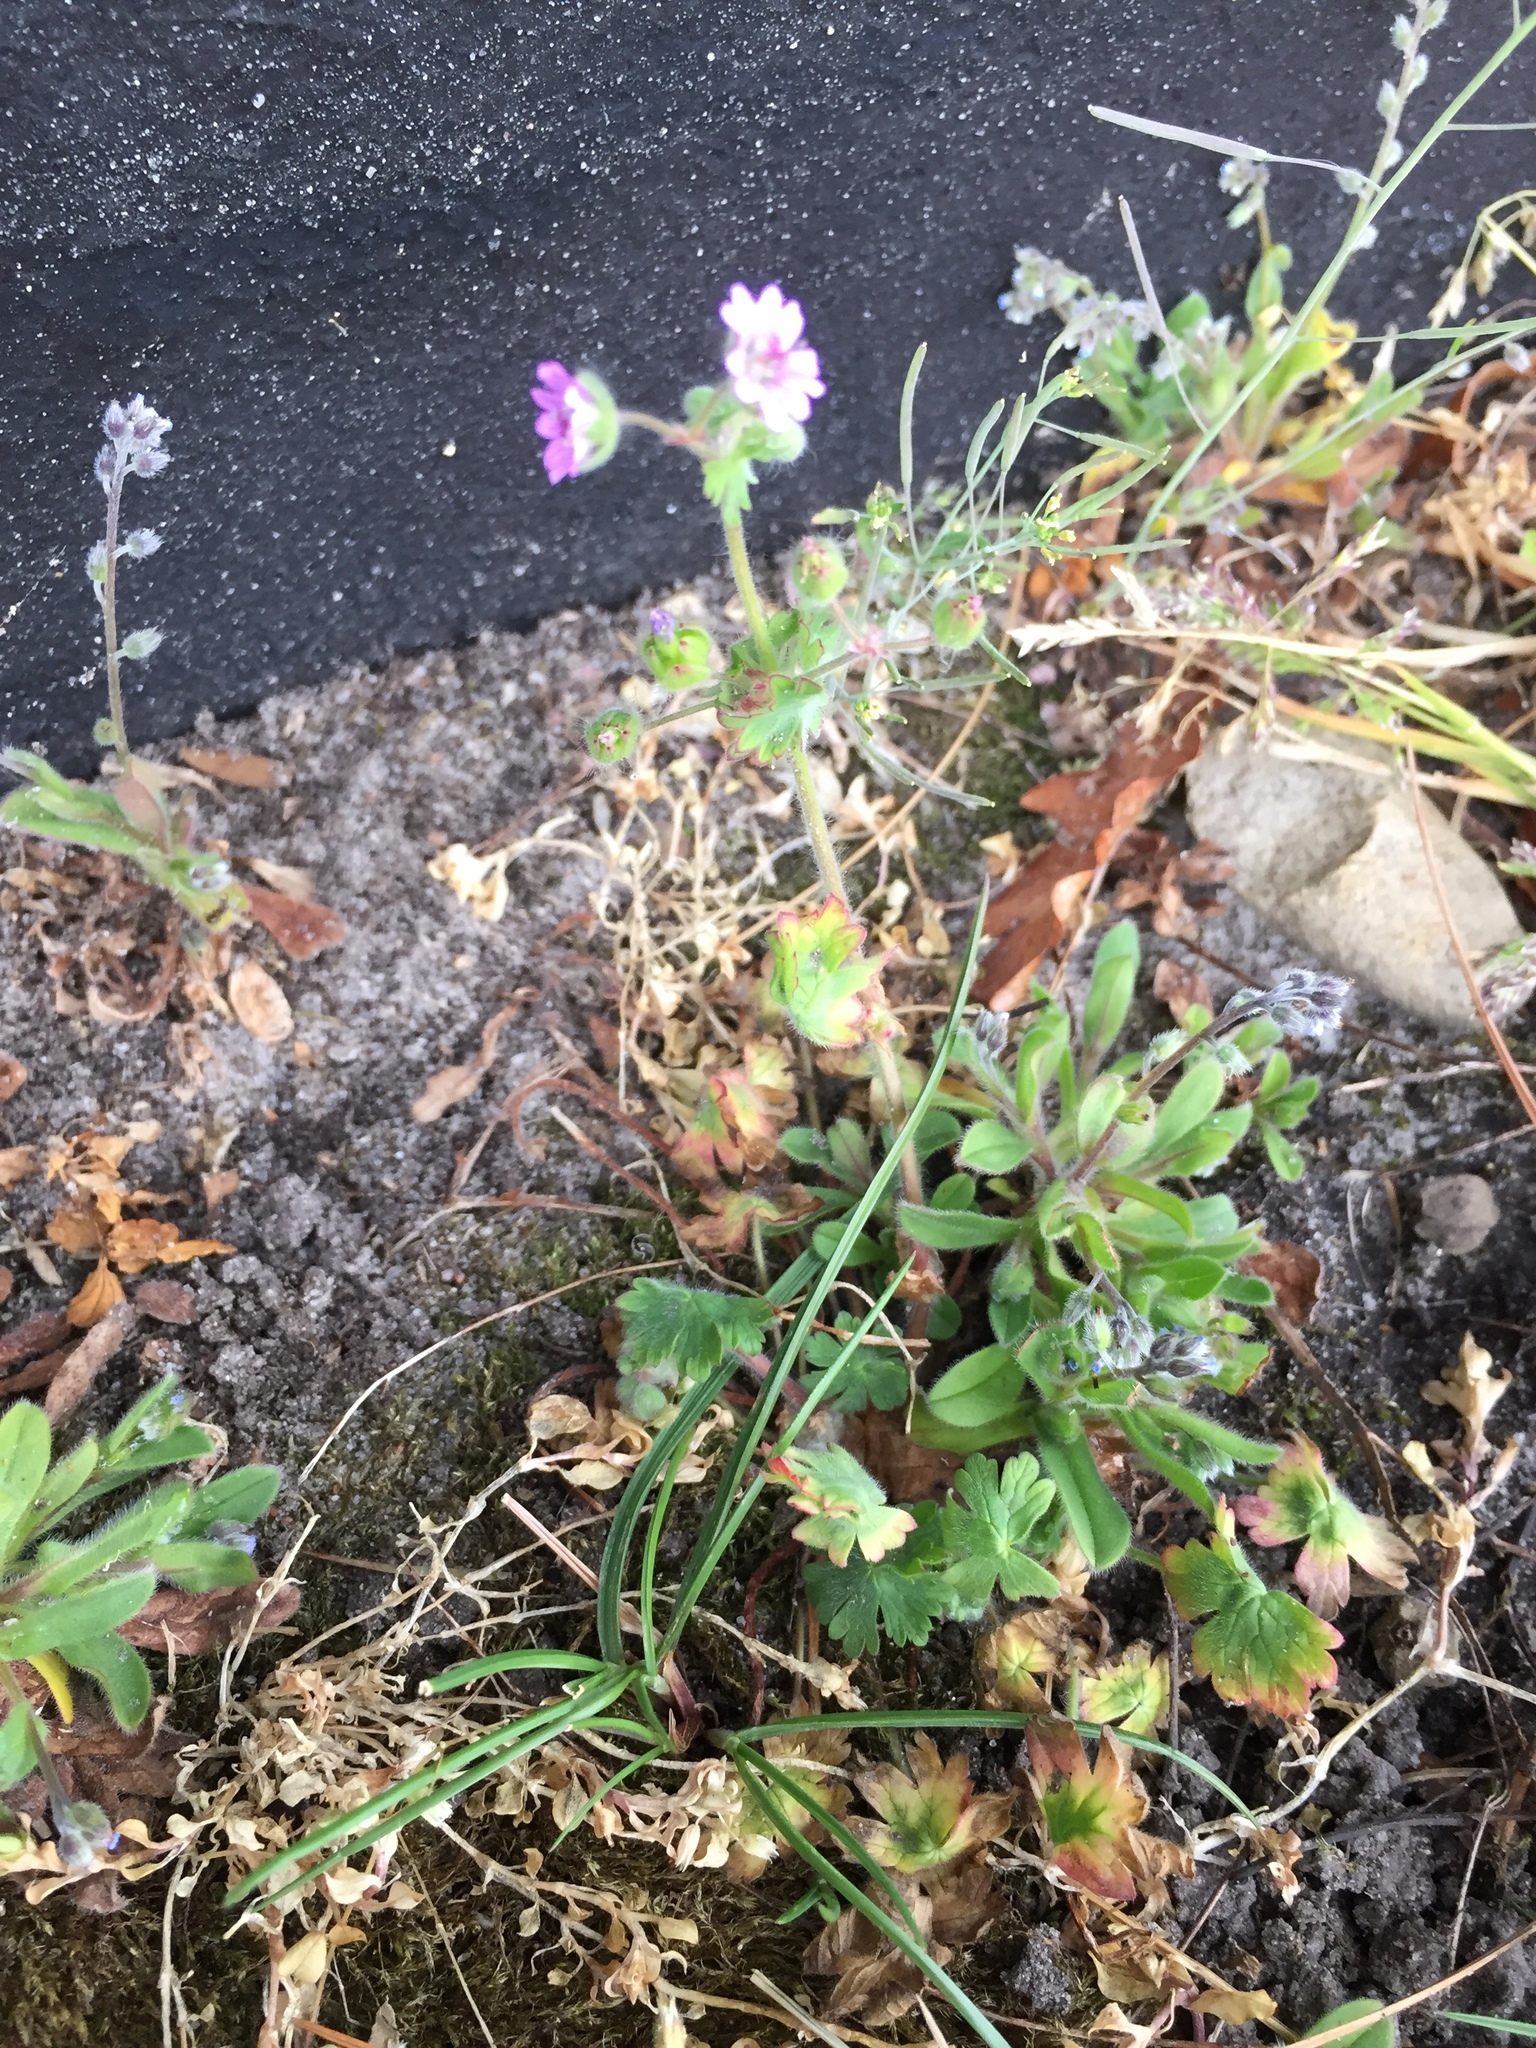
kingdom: Plantae
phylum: Tracheophyta
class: Magnoliopsida
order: Geraniales
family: Geraniaceae
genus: Geranium
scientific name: Geranium molle
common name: Dove's-foot crane's-bill
